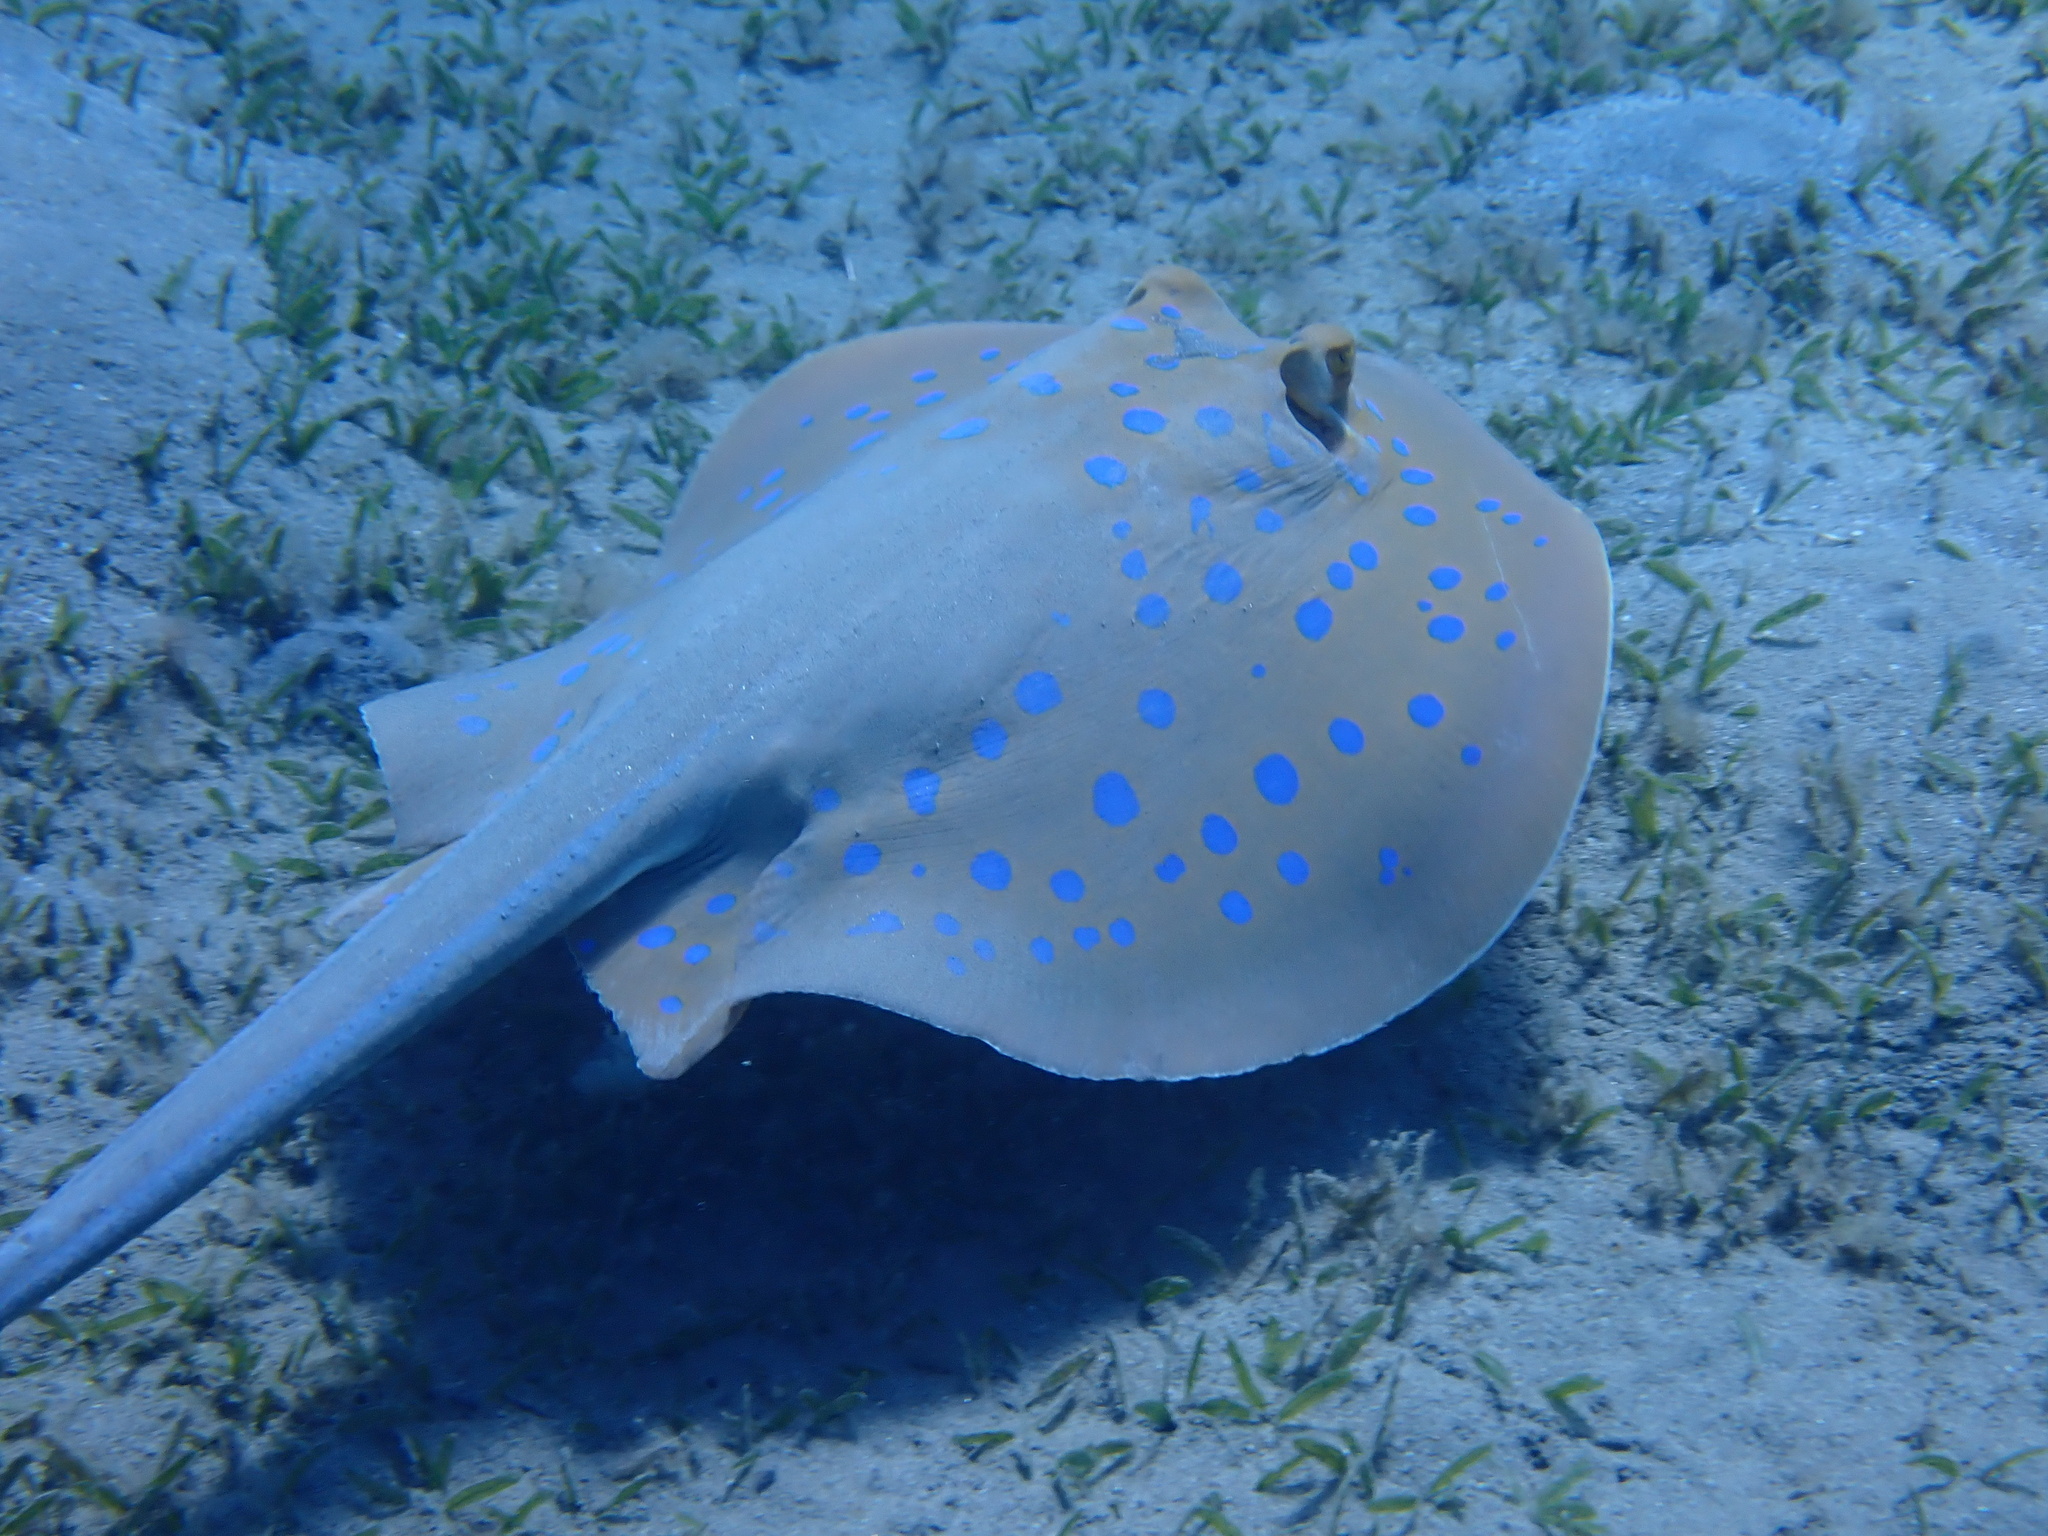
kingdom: Animalia
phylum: Chordata
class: Elasmobranchii
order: Myliobatiformes
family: Dasyatidae
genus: Taeniura
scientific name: Taeniura lymma
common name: Bluespotted ribbontail ray
